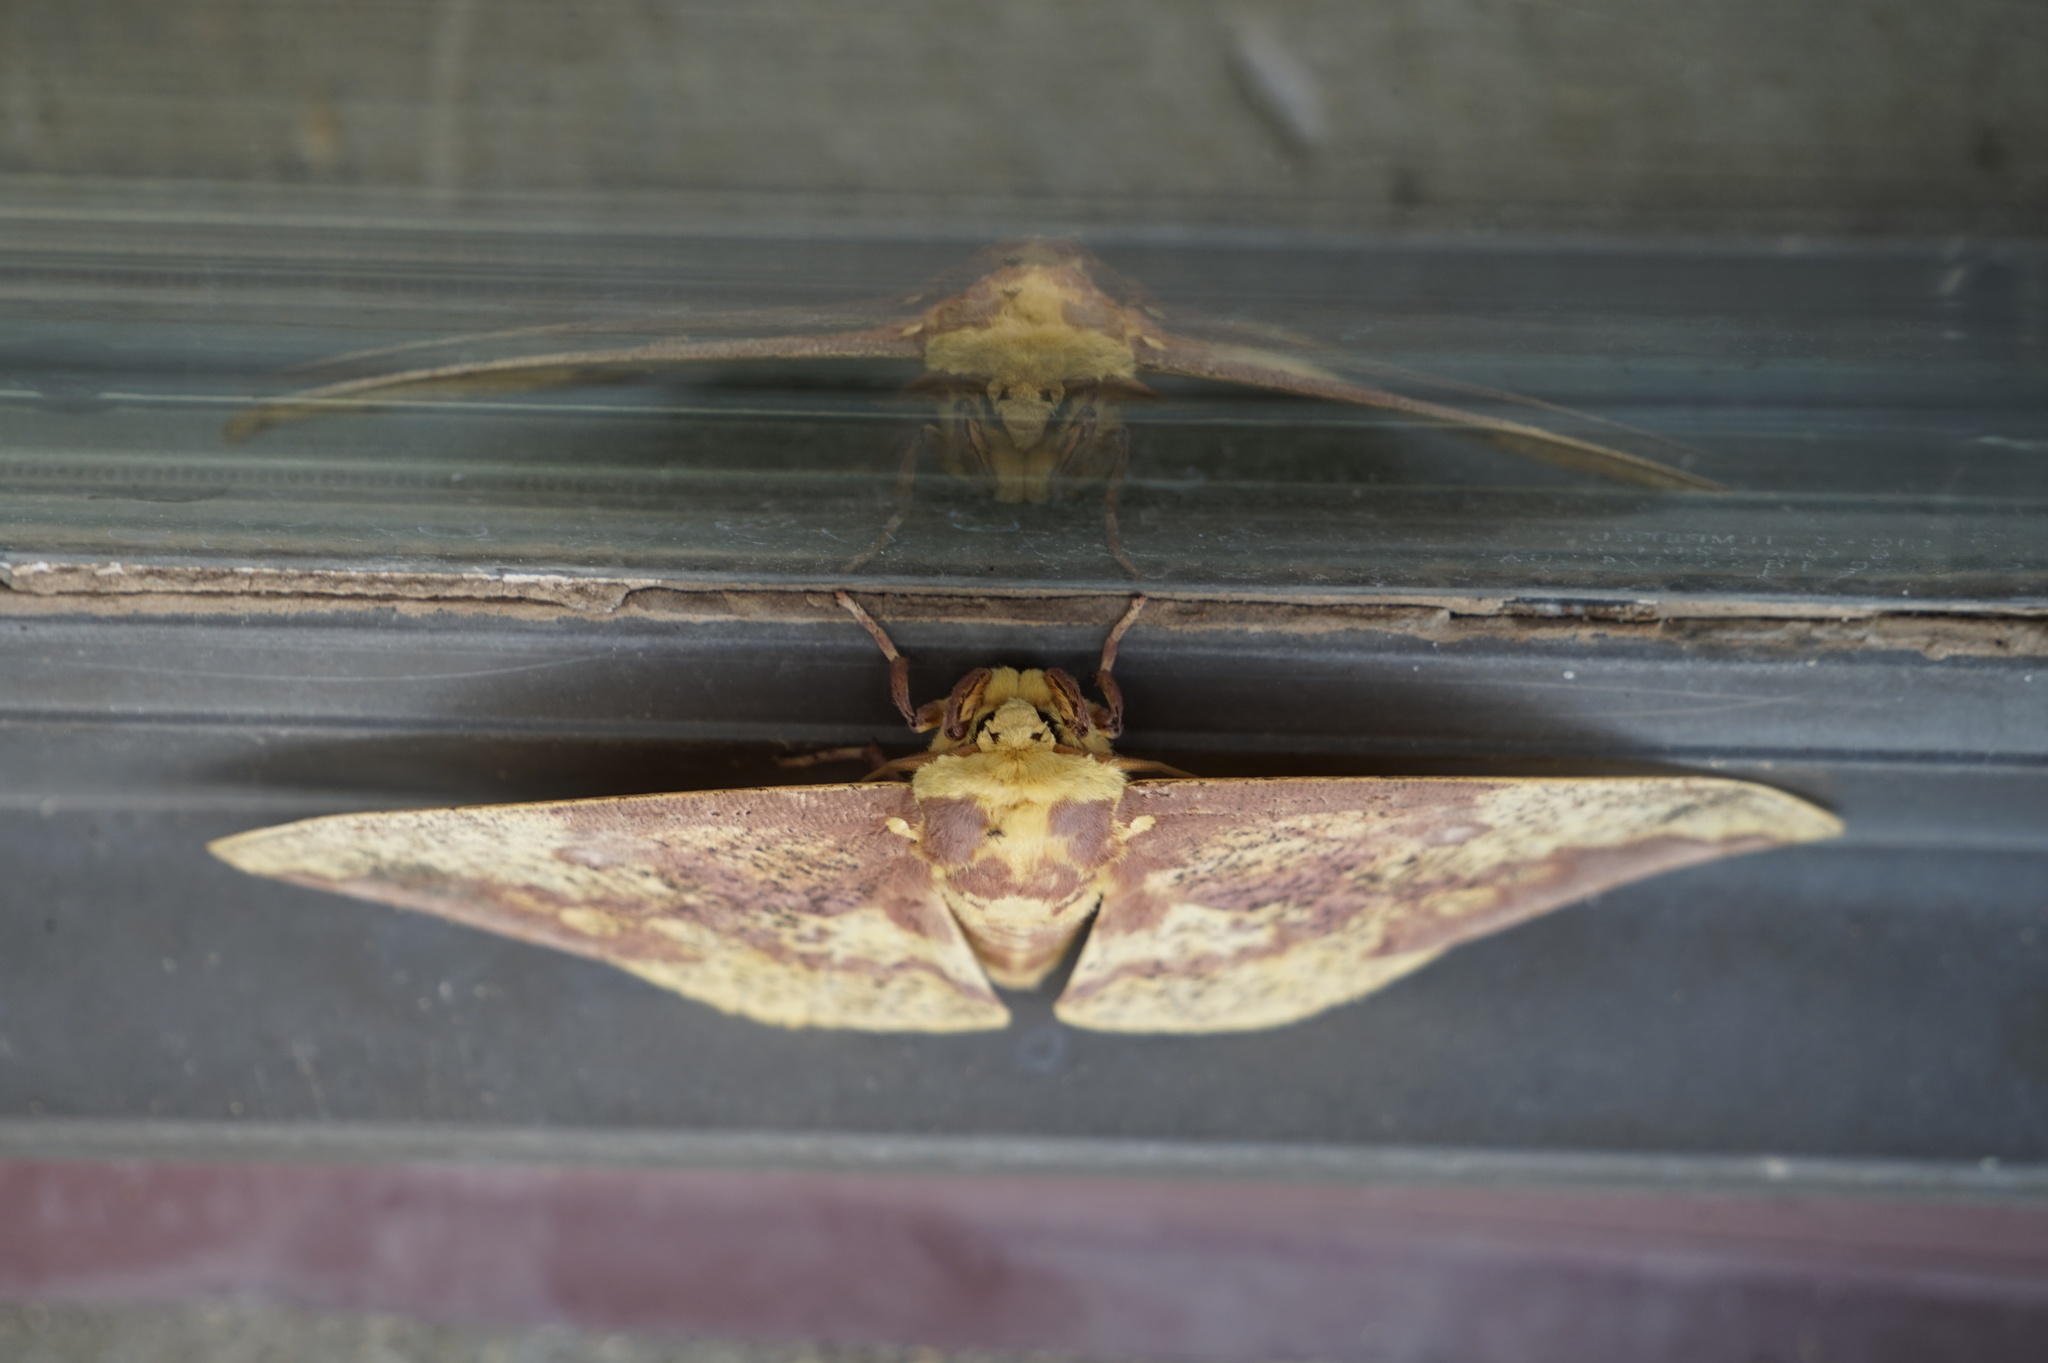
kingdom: Animalia
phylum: Arthropoda
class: Insecta
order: Lepidoptera
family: Saturniidae
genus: Eacles
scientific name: Eacles imperialis
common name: Imperial moth
